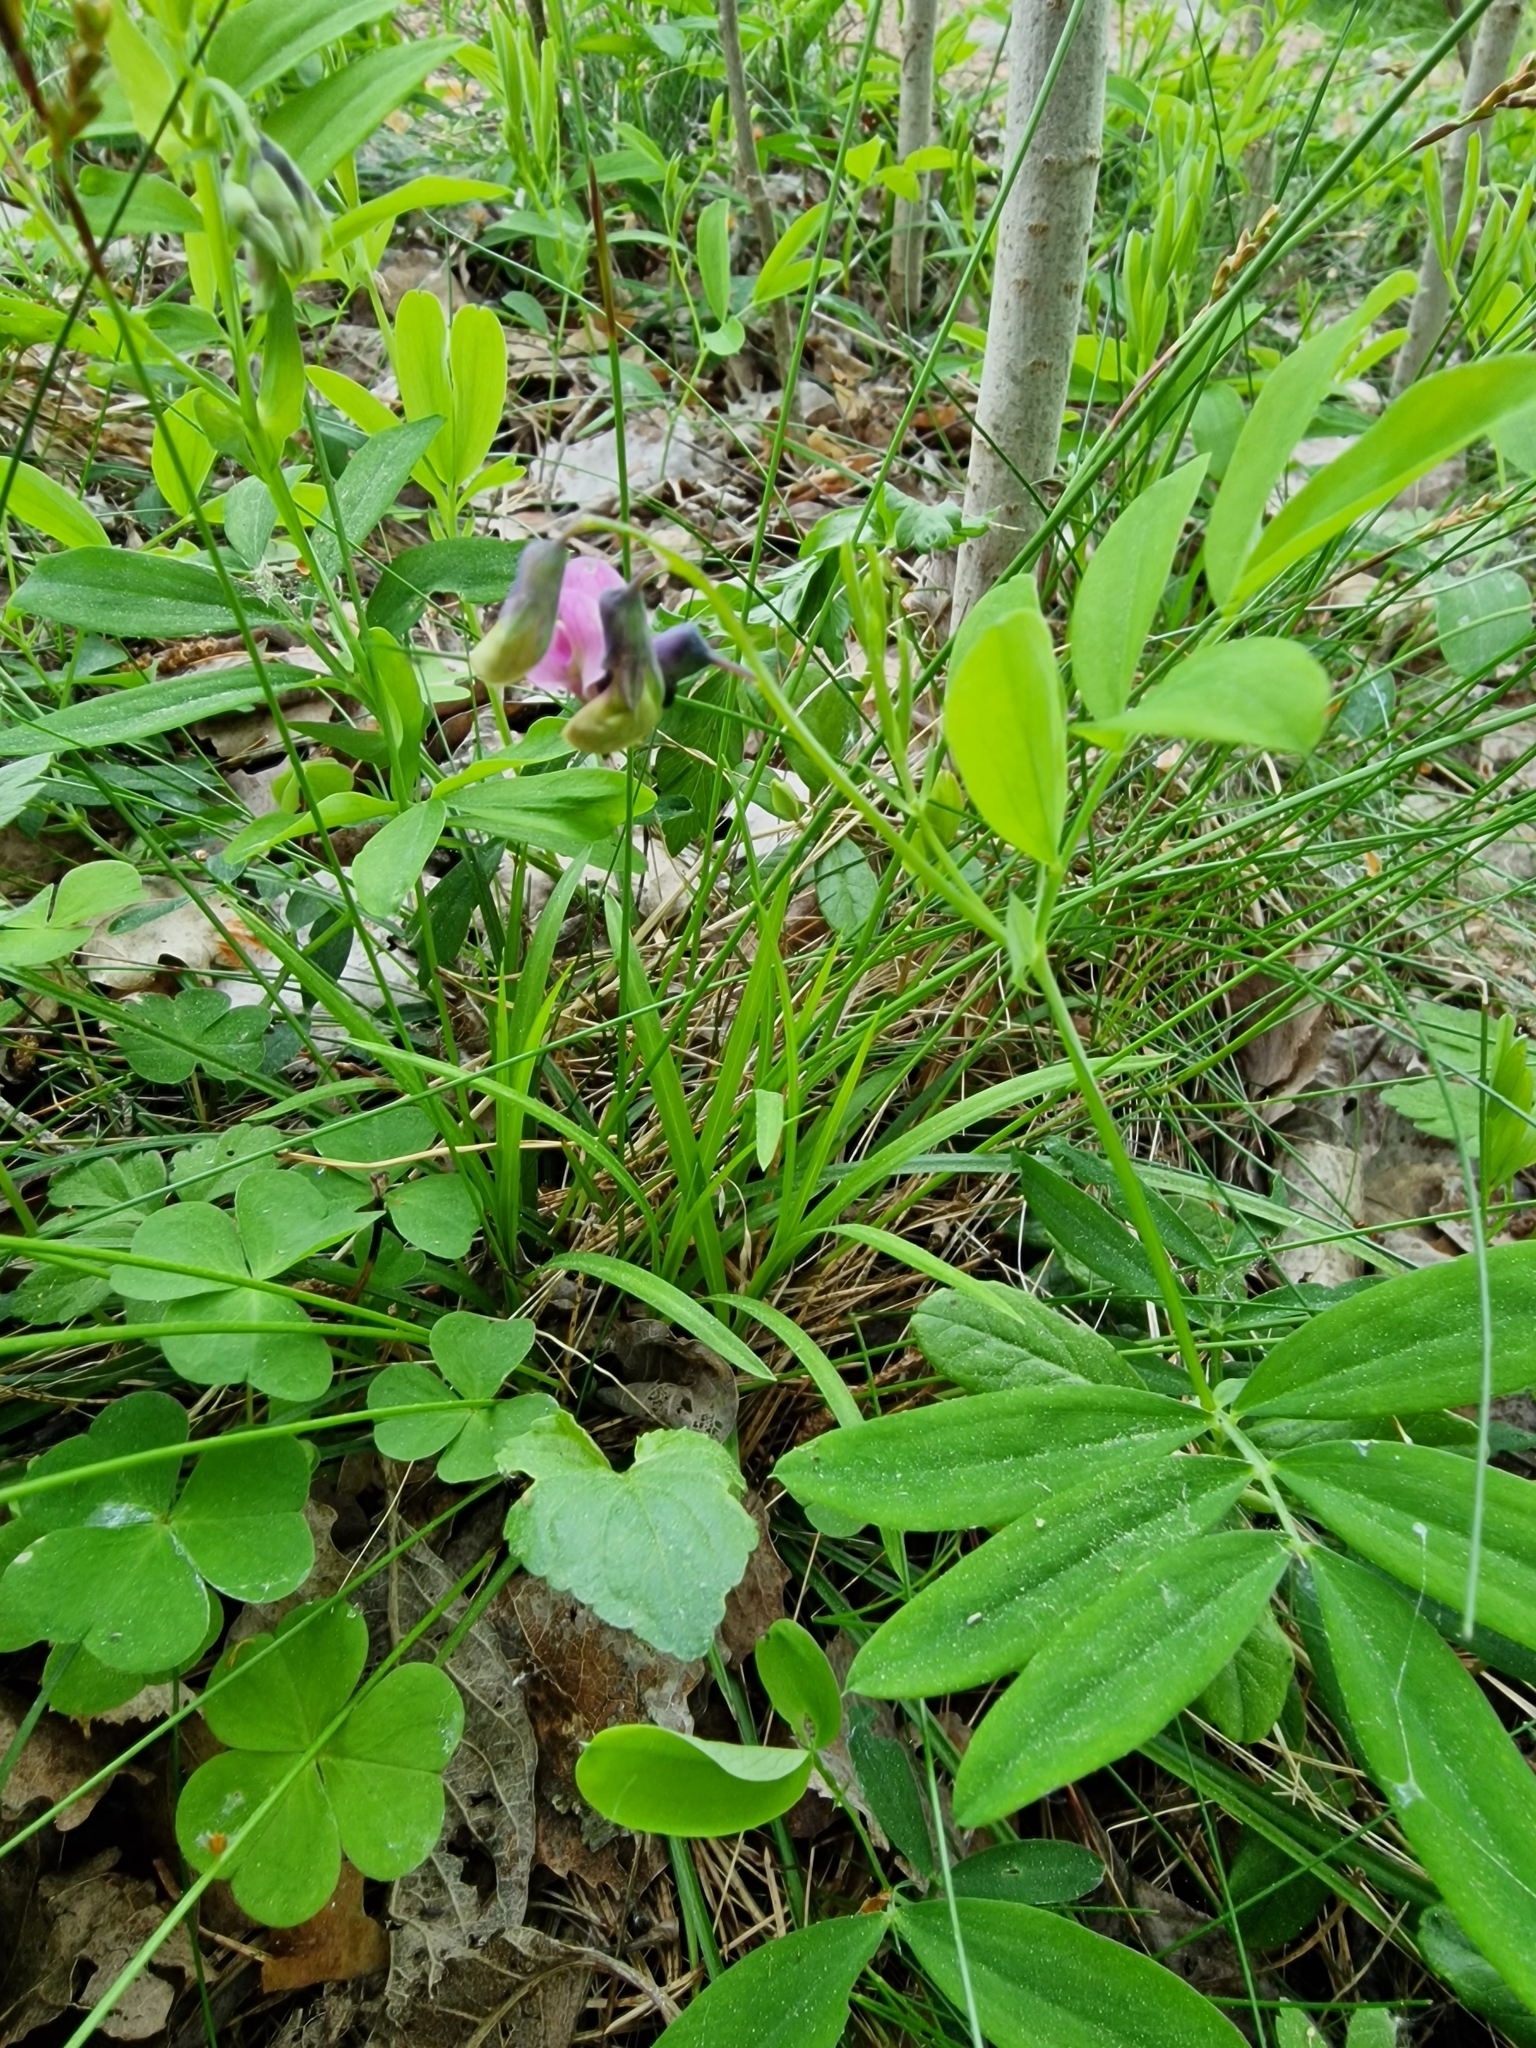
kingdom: Plantae
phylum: Tracheophyta
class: Magnoliopsida
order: Fabales
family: Fabaceae
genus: Lathyrus
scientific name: Lathyrus linifolius
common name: Bitter-vetch
